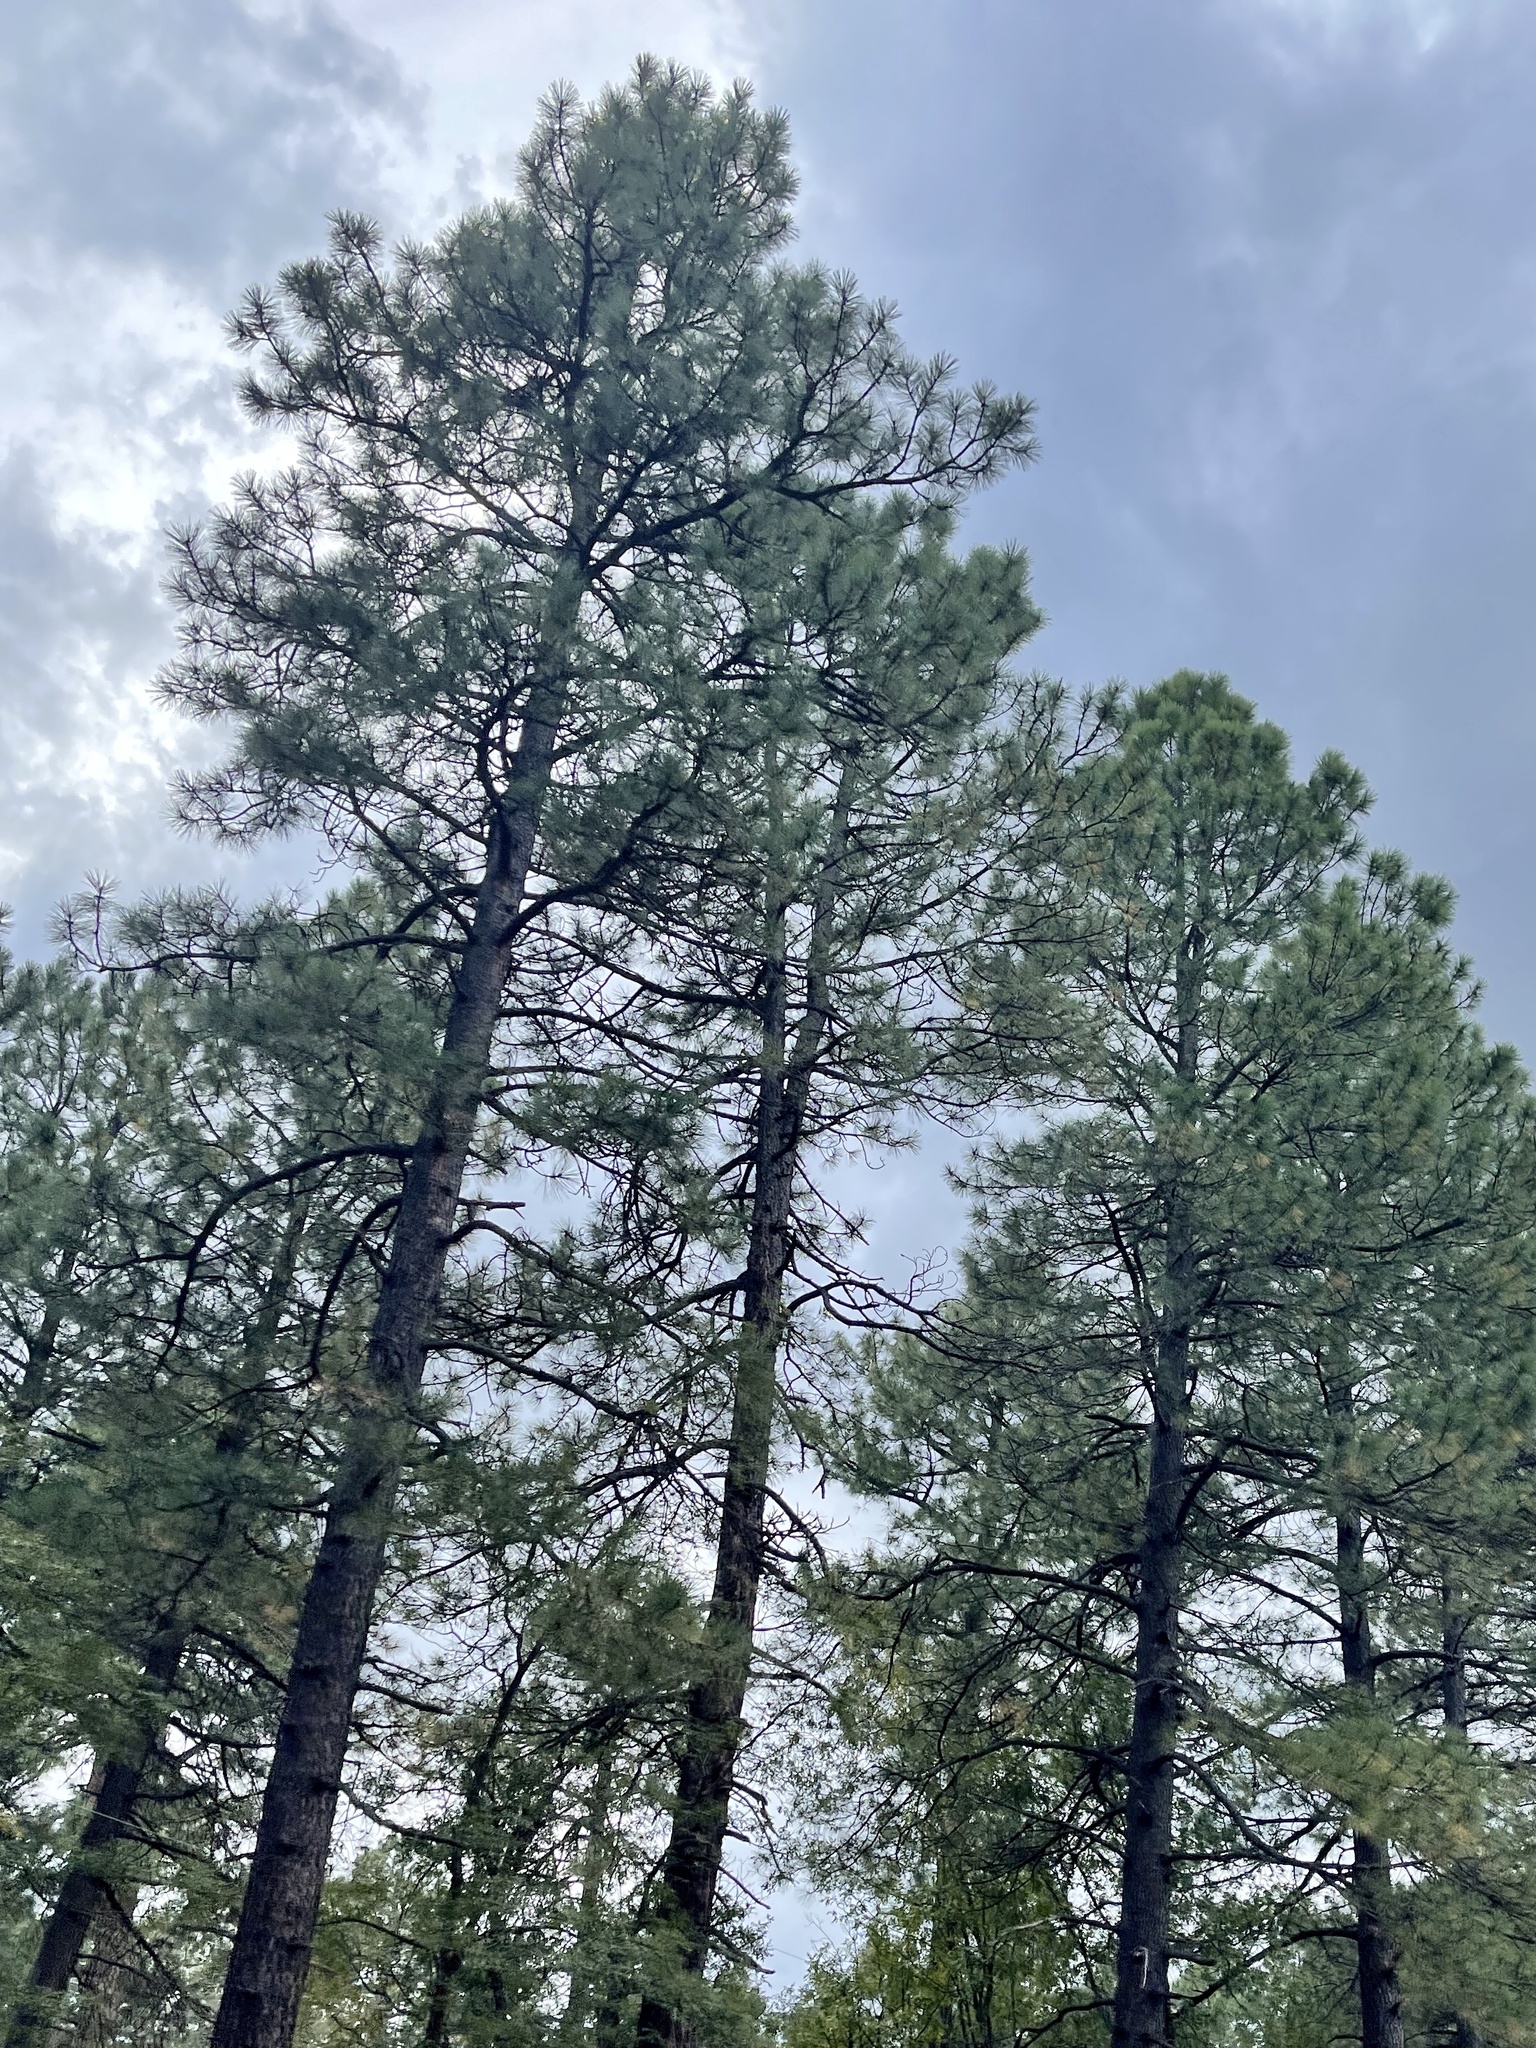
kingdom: Plantae
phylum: Tracheophyta
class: Pinopsida
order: Pinales
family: Pinaceae
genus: Pinus
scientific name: Pinus ponderosa
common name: Western yellow-pine
